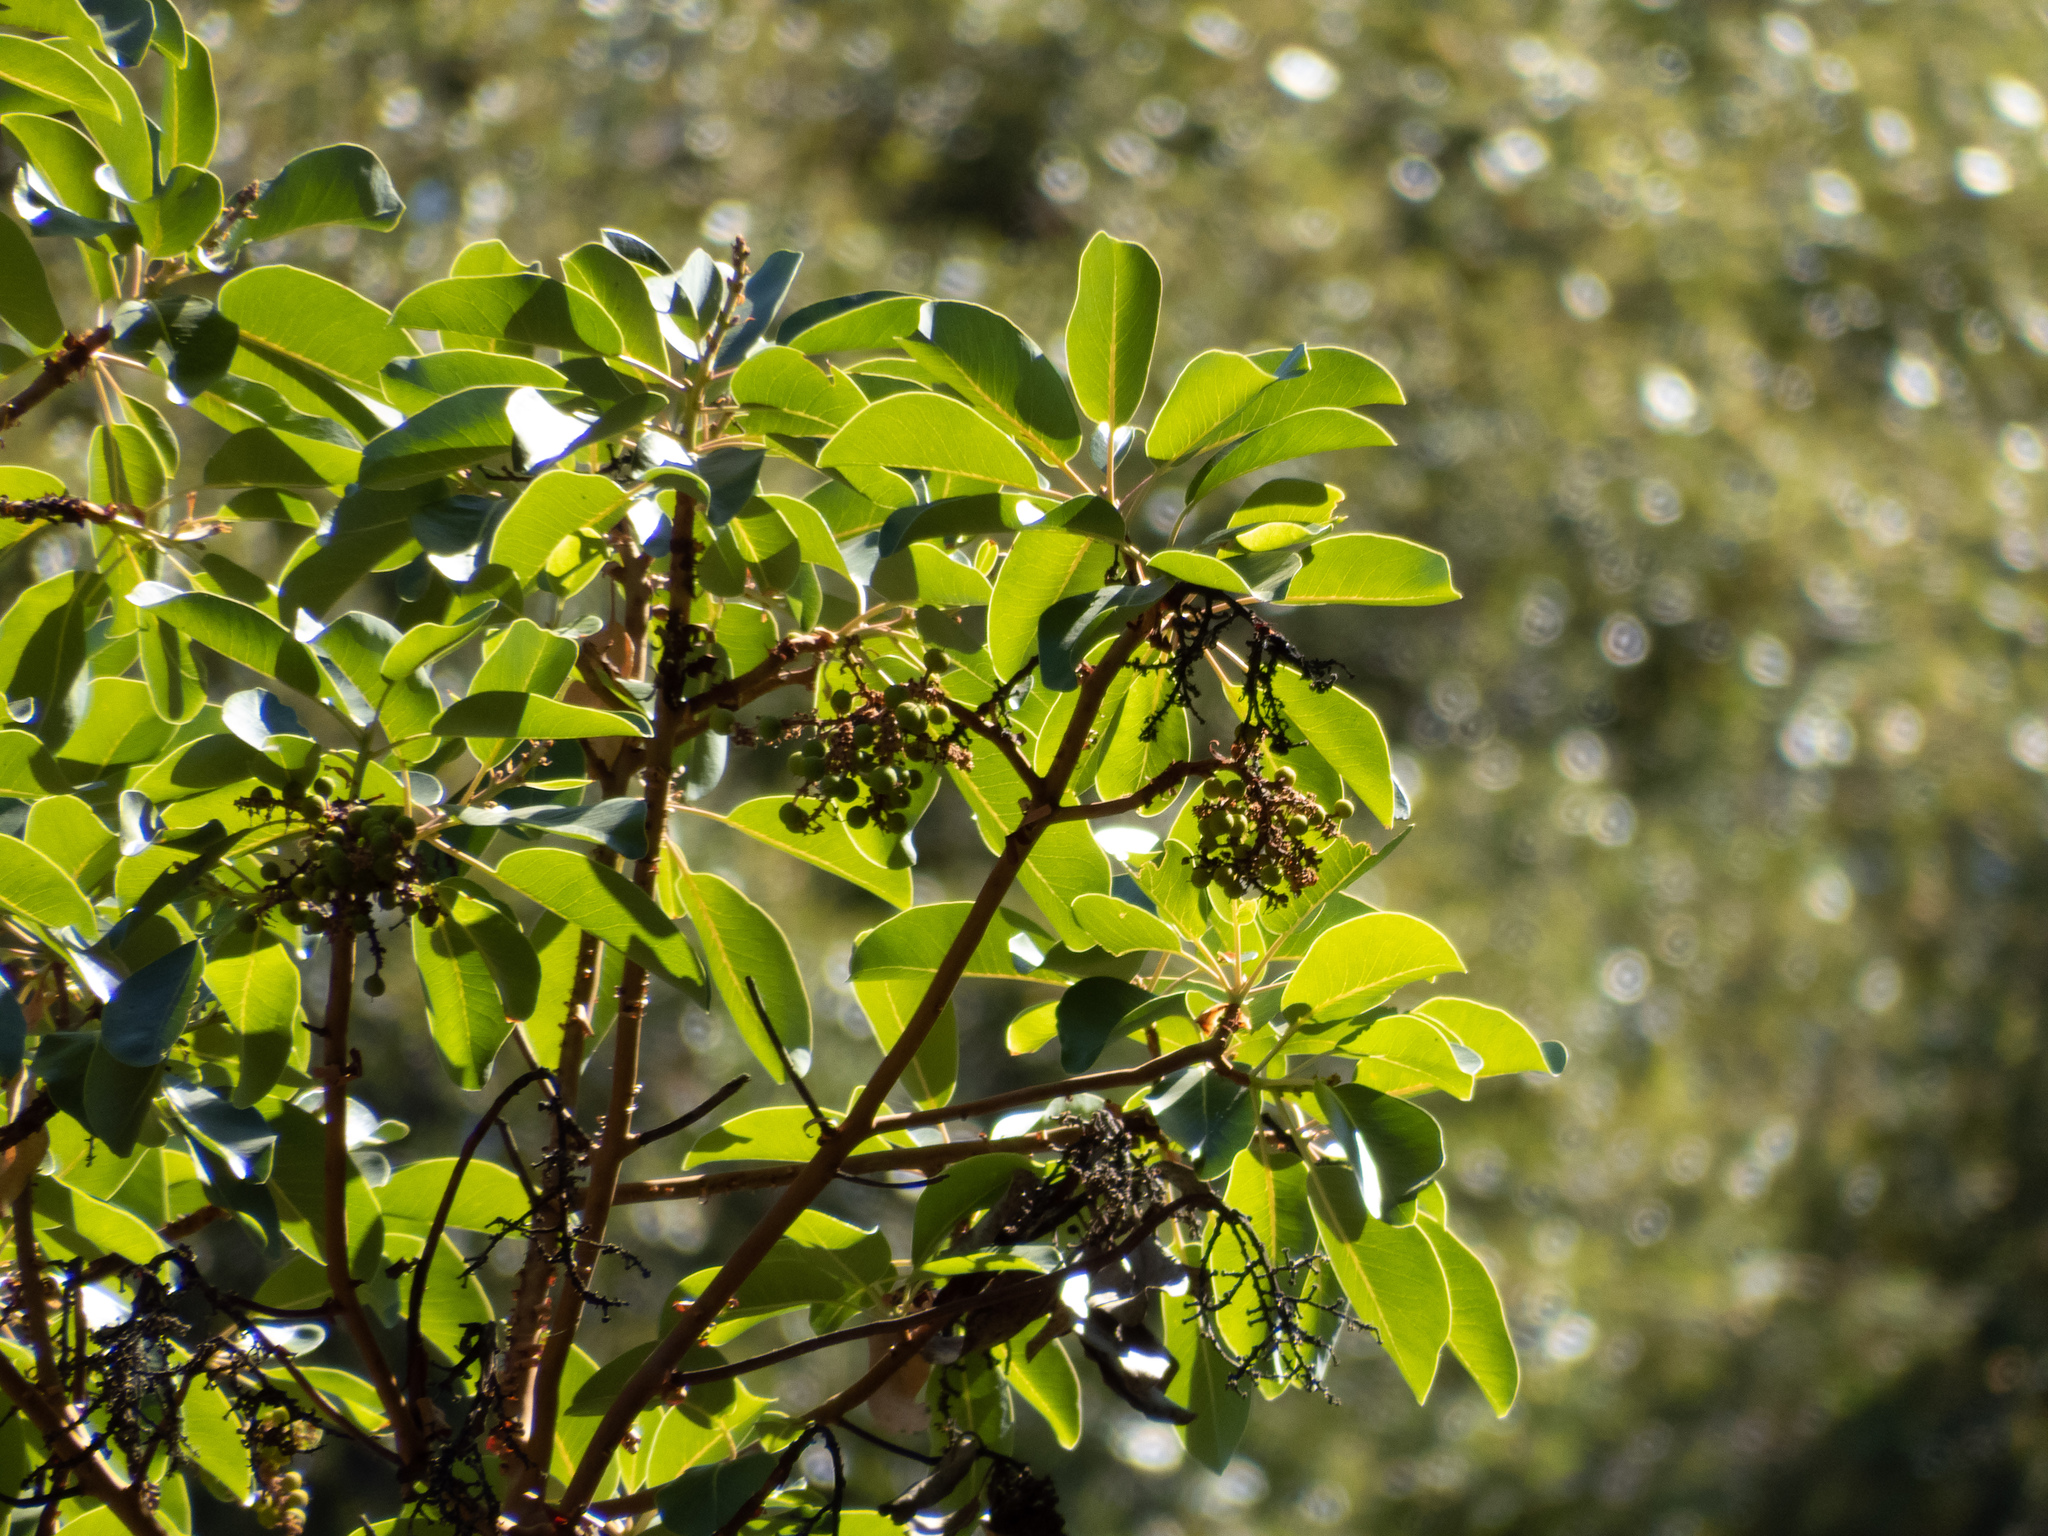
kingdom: Plantae
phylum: Tracheophyta
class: Magnoliopsida
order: Ericales
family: Ericaceae
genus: Arbutus
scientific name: Arbutus menziesii
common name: Pacific madrone
